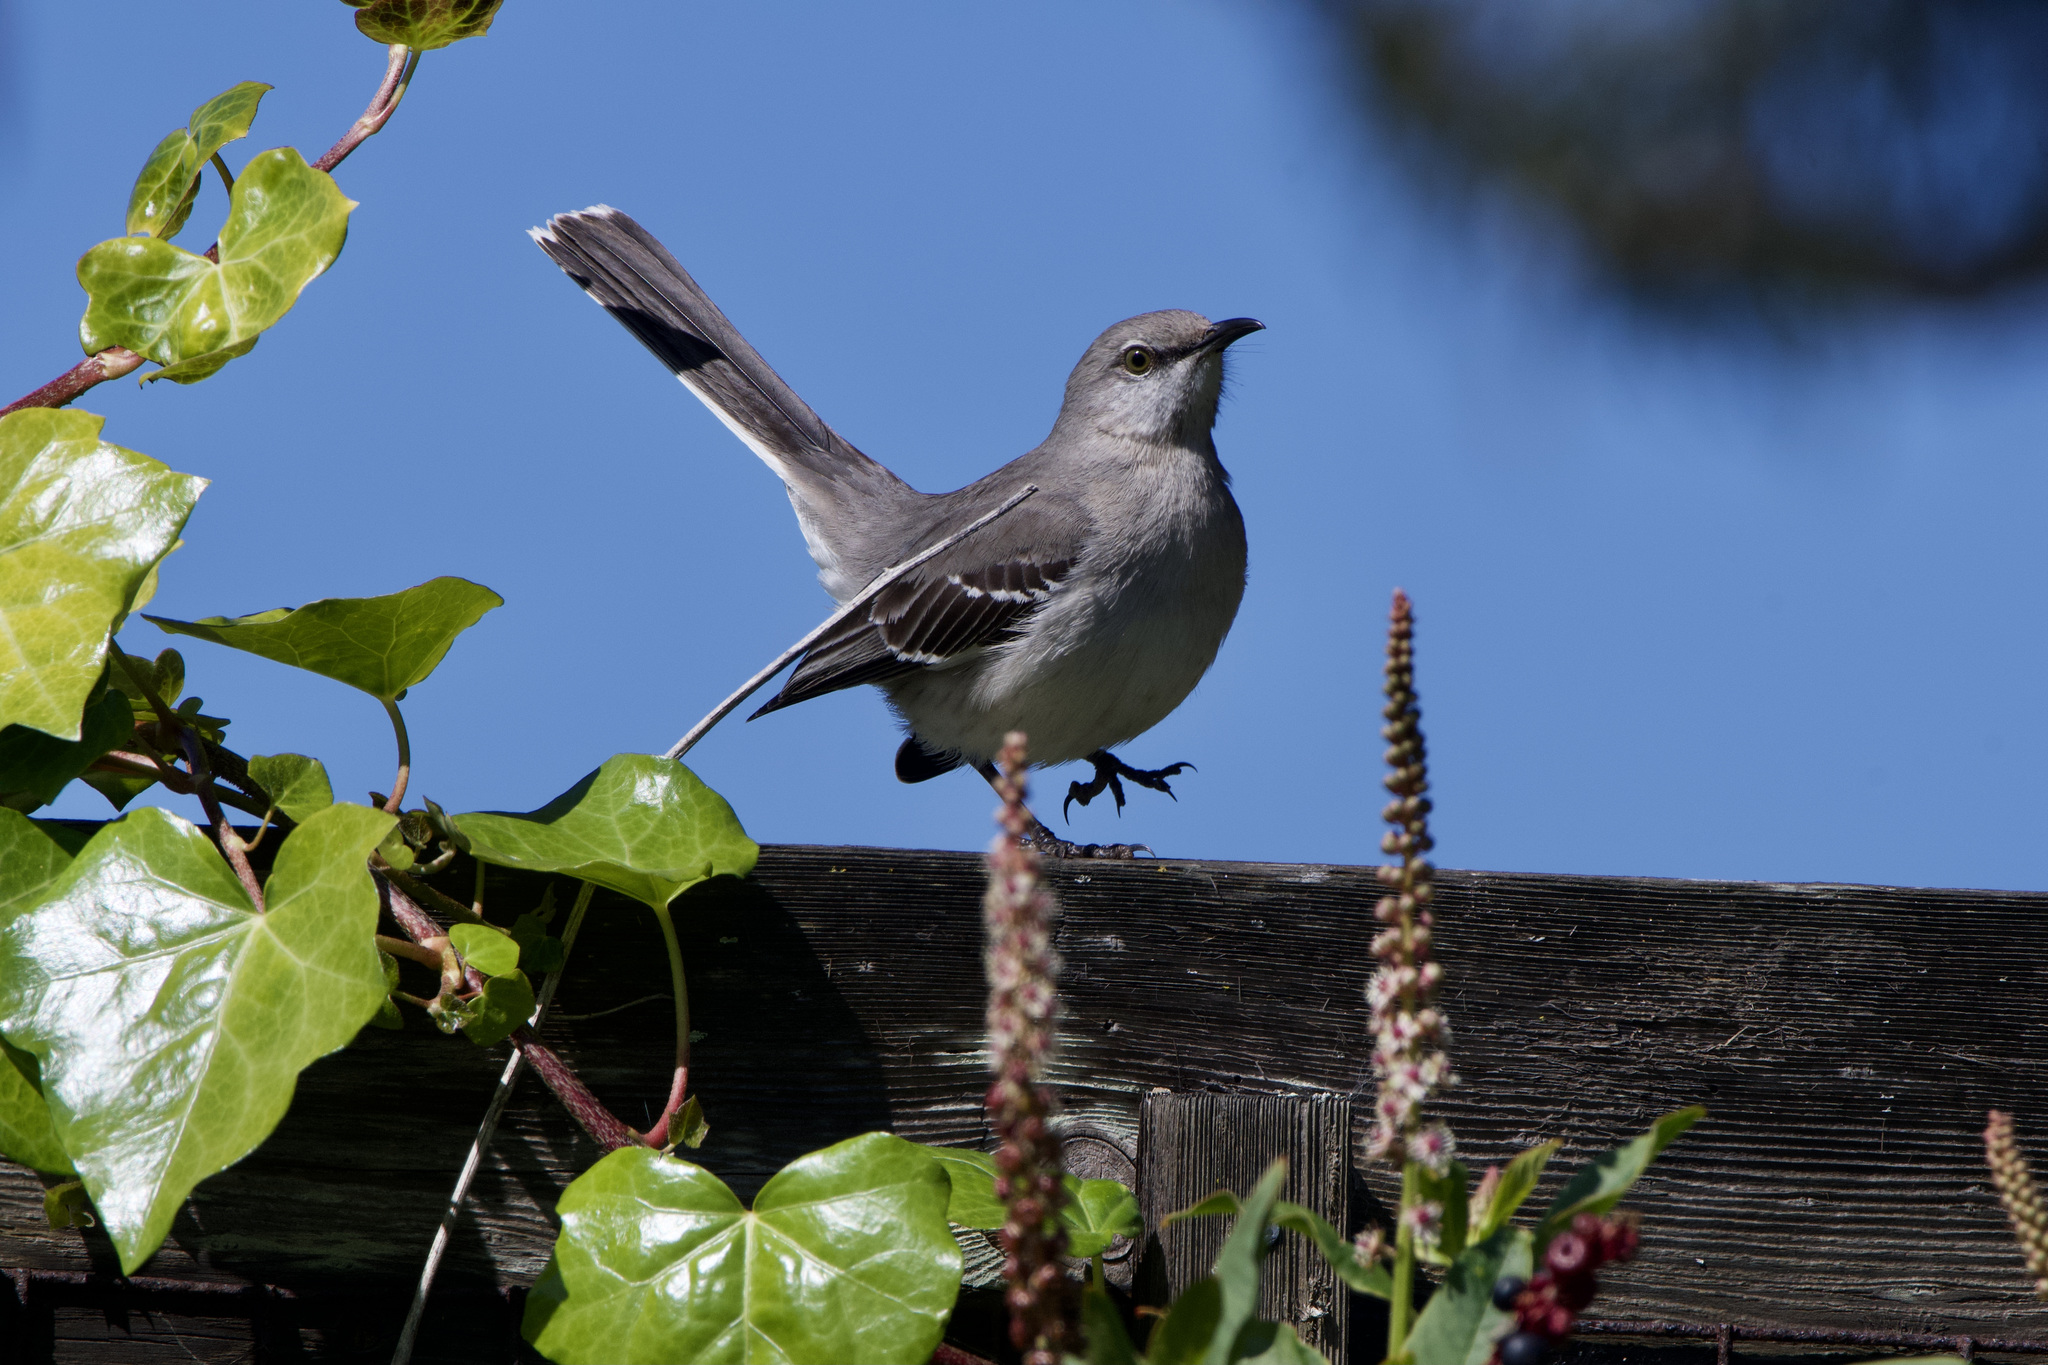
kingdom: Animalia
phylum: Chordata
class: Aves
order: Passeriformes
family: Mimidae
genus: Mimus
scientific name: Mimus polyglottos
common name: Northern mockingbird
